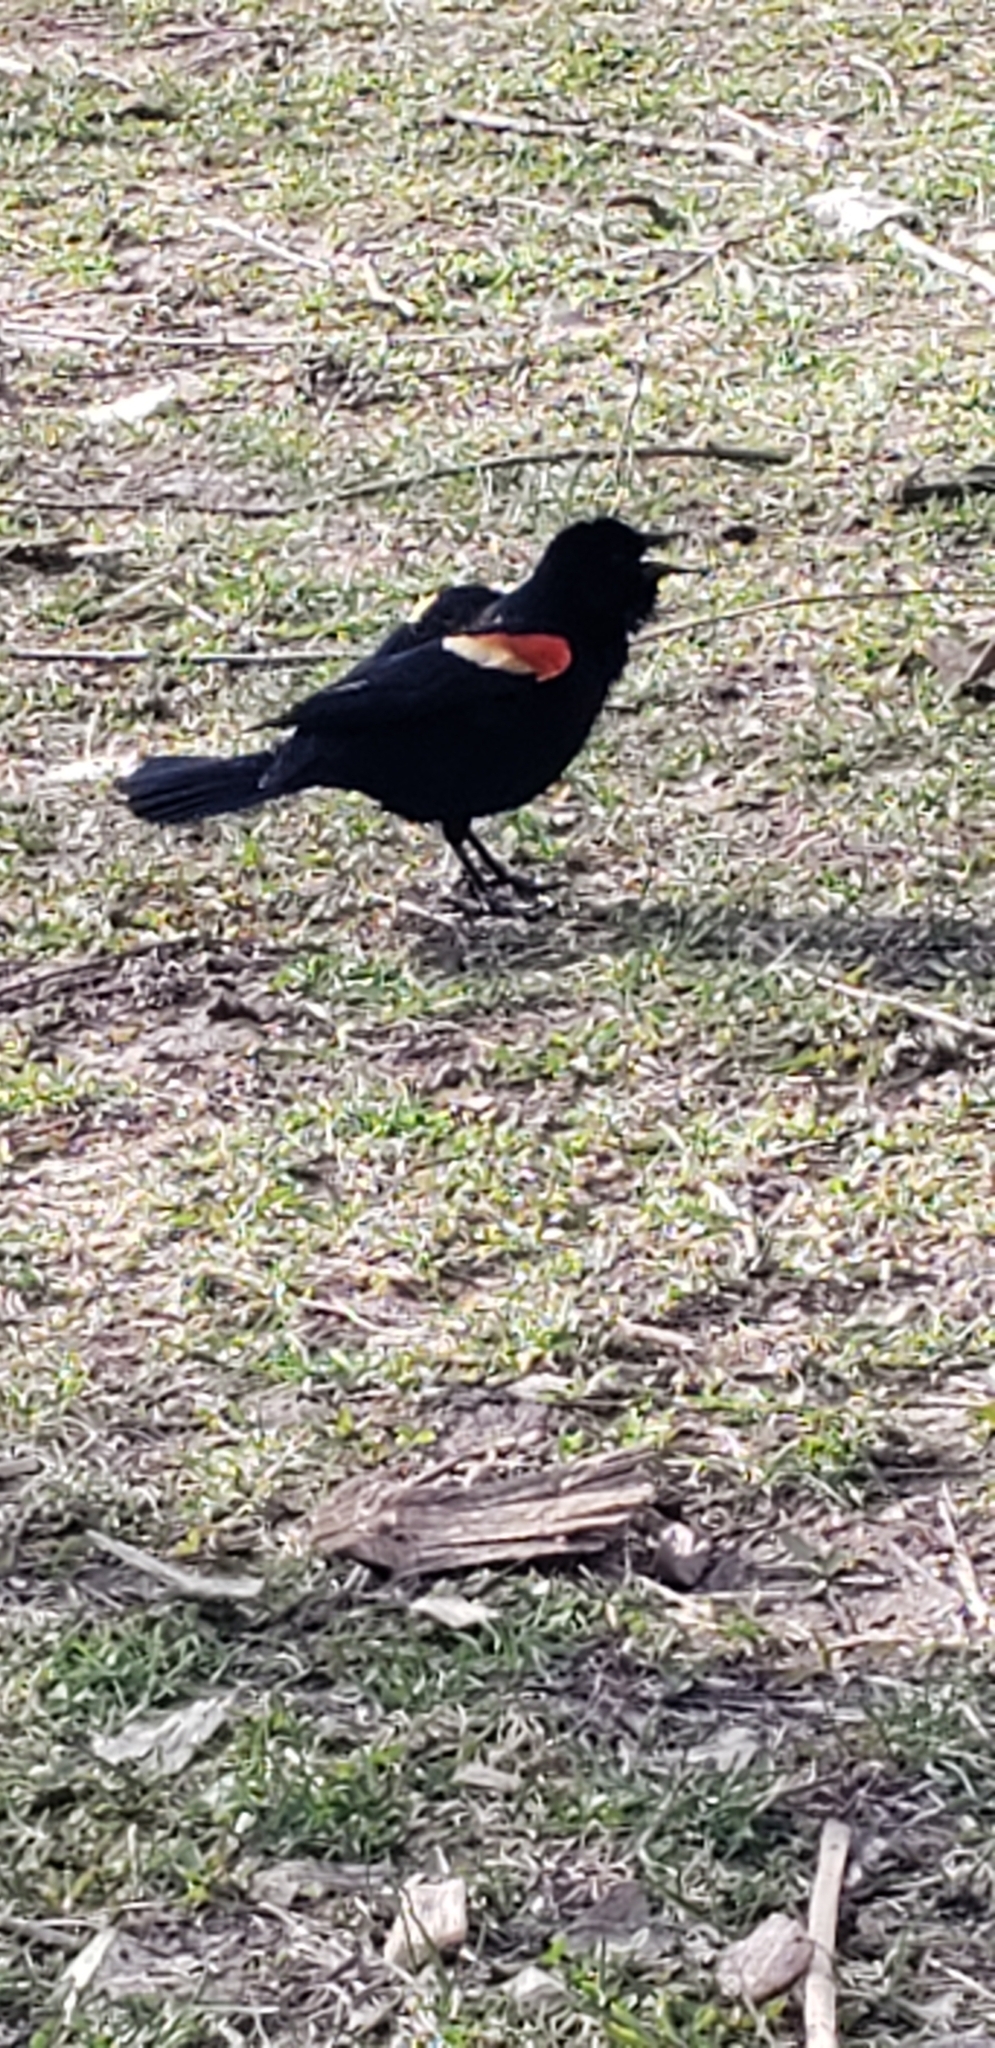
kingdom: Animalia
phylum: Chordata
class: Aves
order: Passeriformes
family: Icteridae
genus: Agelaius
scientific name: Agelaius phoeniceus
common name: Red-winged blackbird
